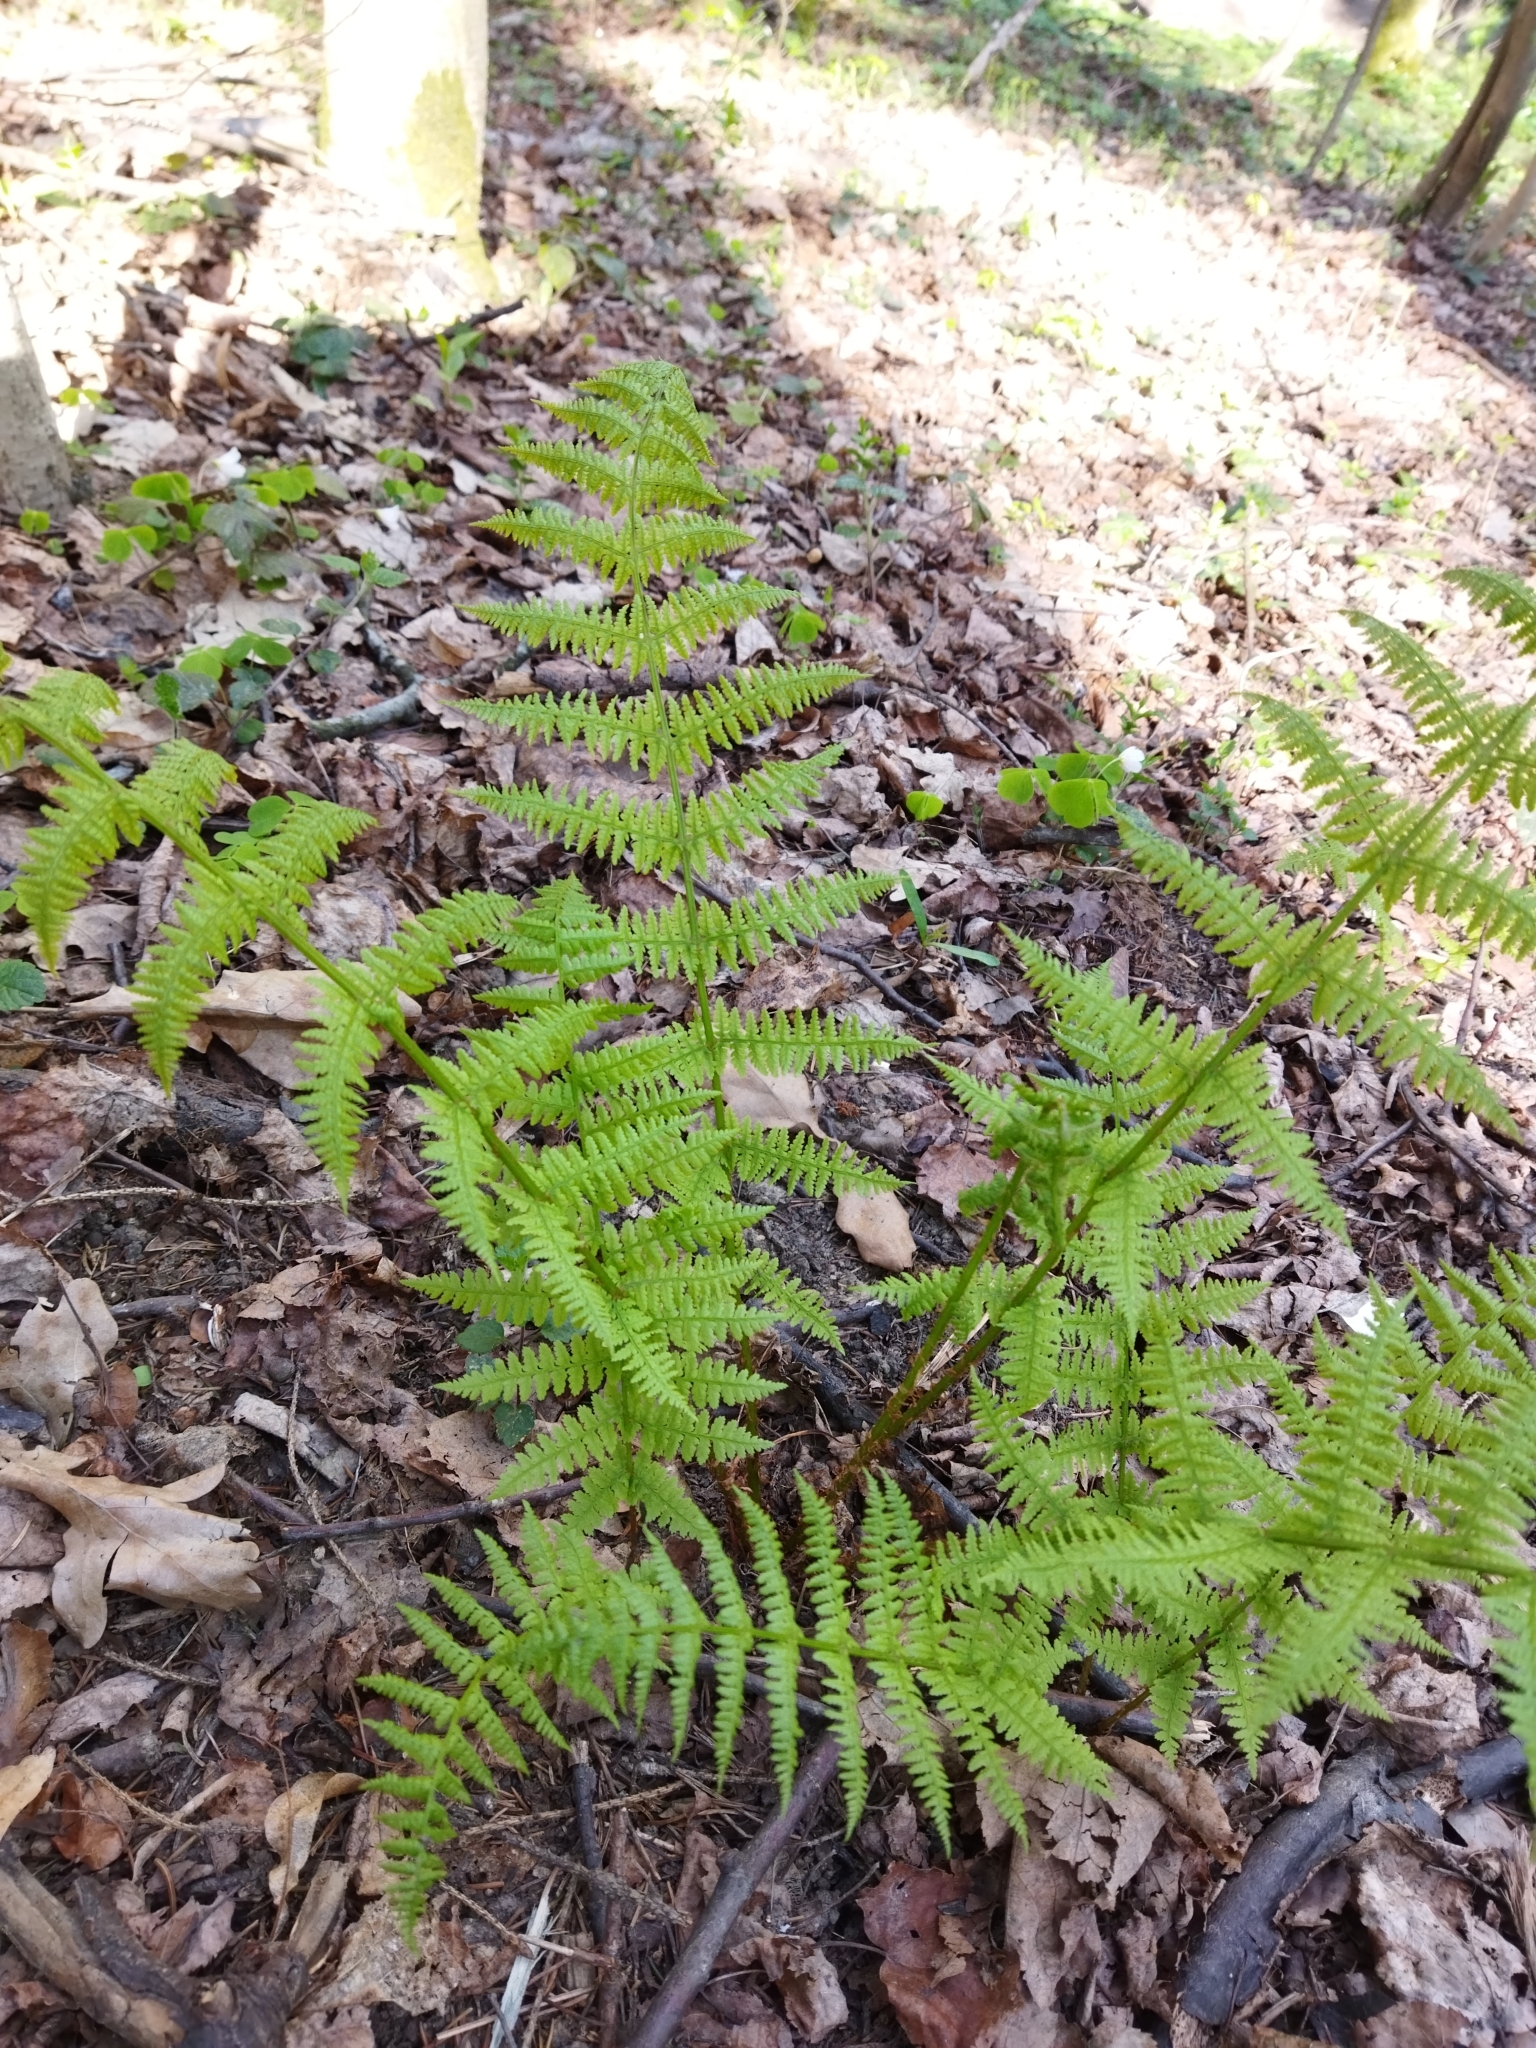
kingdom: Plantae
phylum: Tracheophyta
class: Polypodiopsida
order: Polypodiales
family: Athyriaceae
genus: Athyrium
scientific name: Athyrium filix-femina
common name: Lady fern
